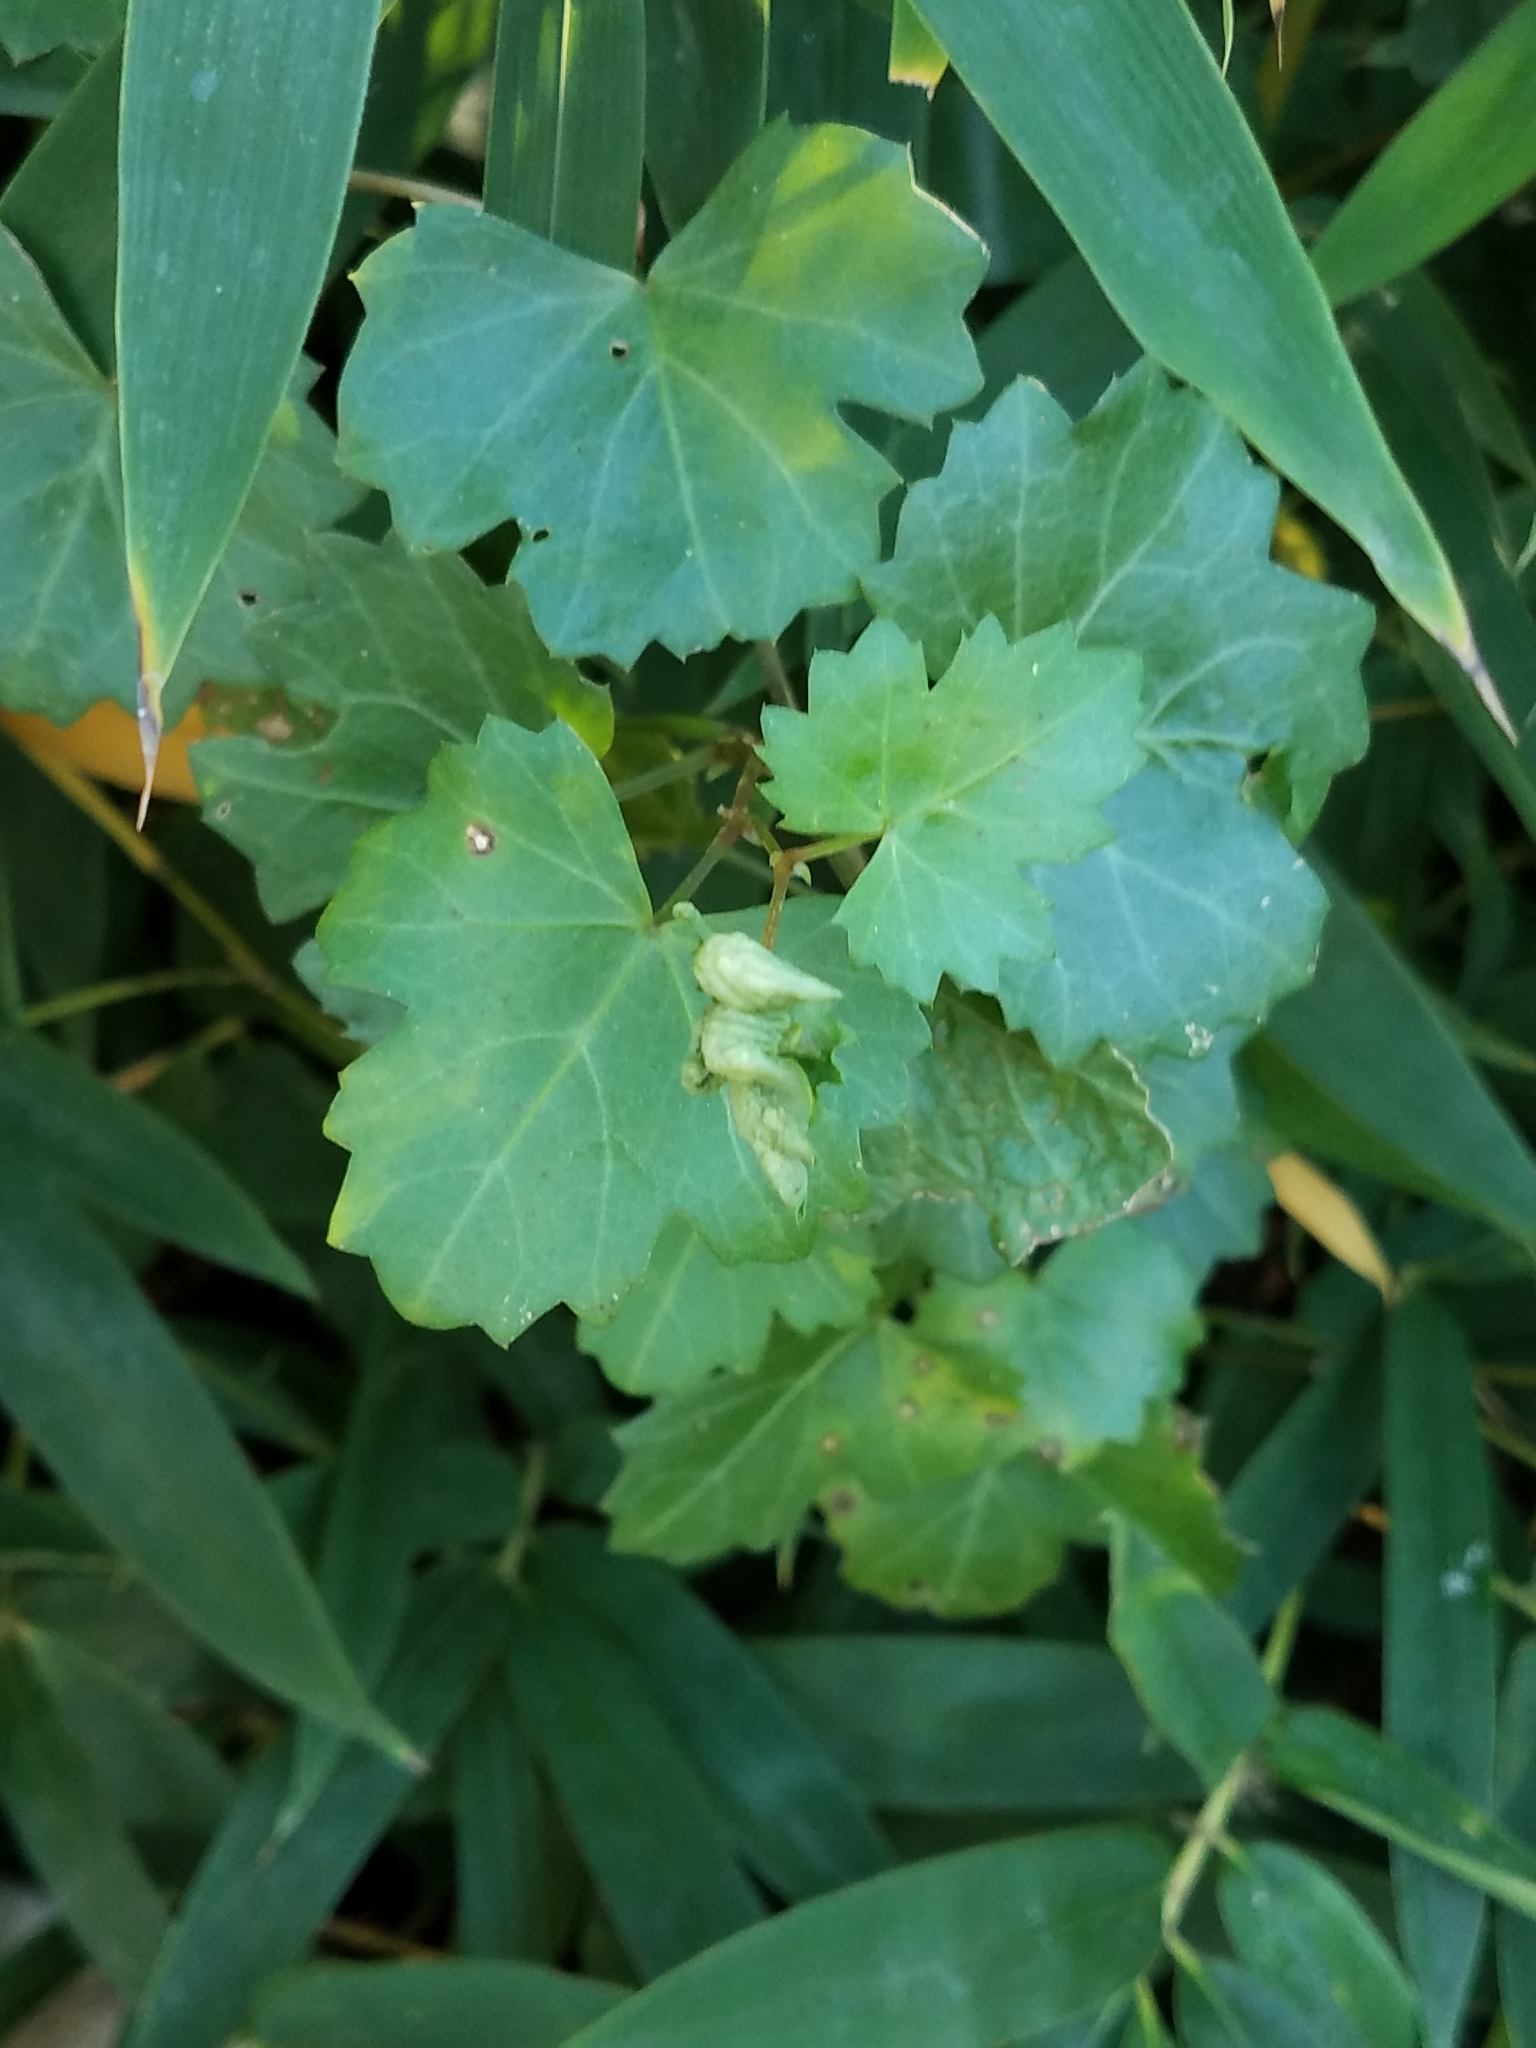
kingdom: Plantae
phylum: Tracheophyta
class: Magnoliopsida
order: Vitales
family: Vitaceae
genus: Cissus
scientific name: Cissus trifoliata
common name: Vine-sorrel
